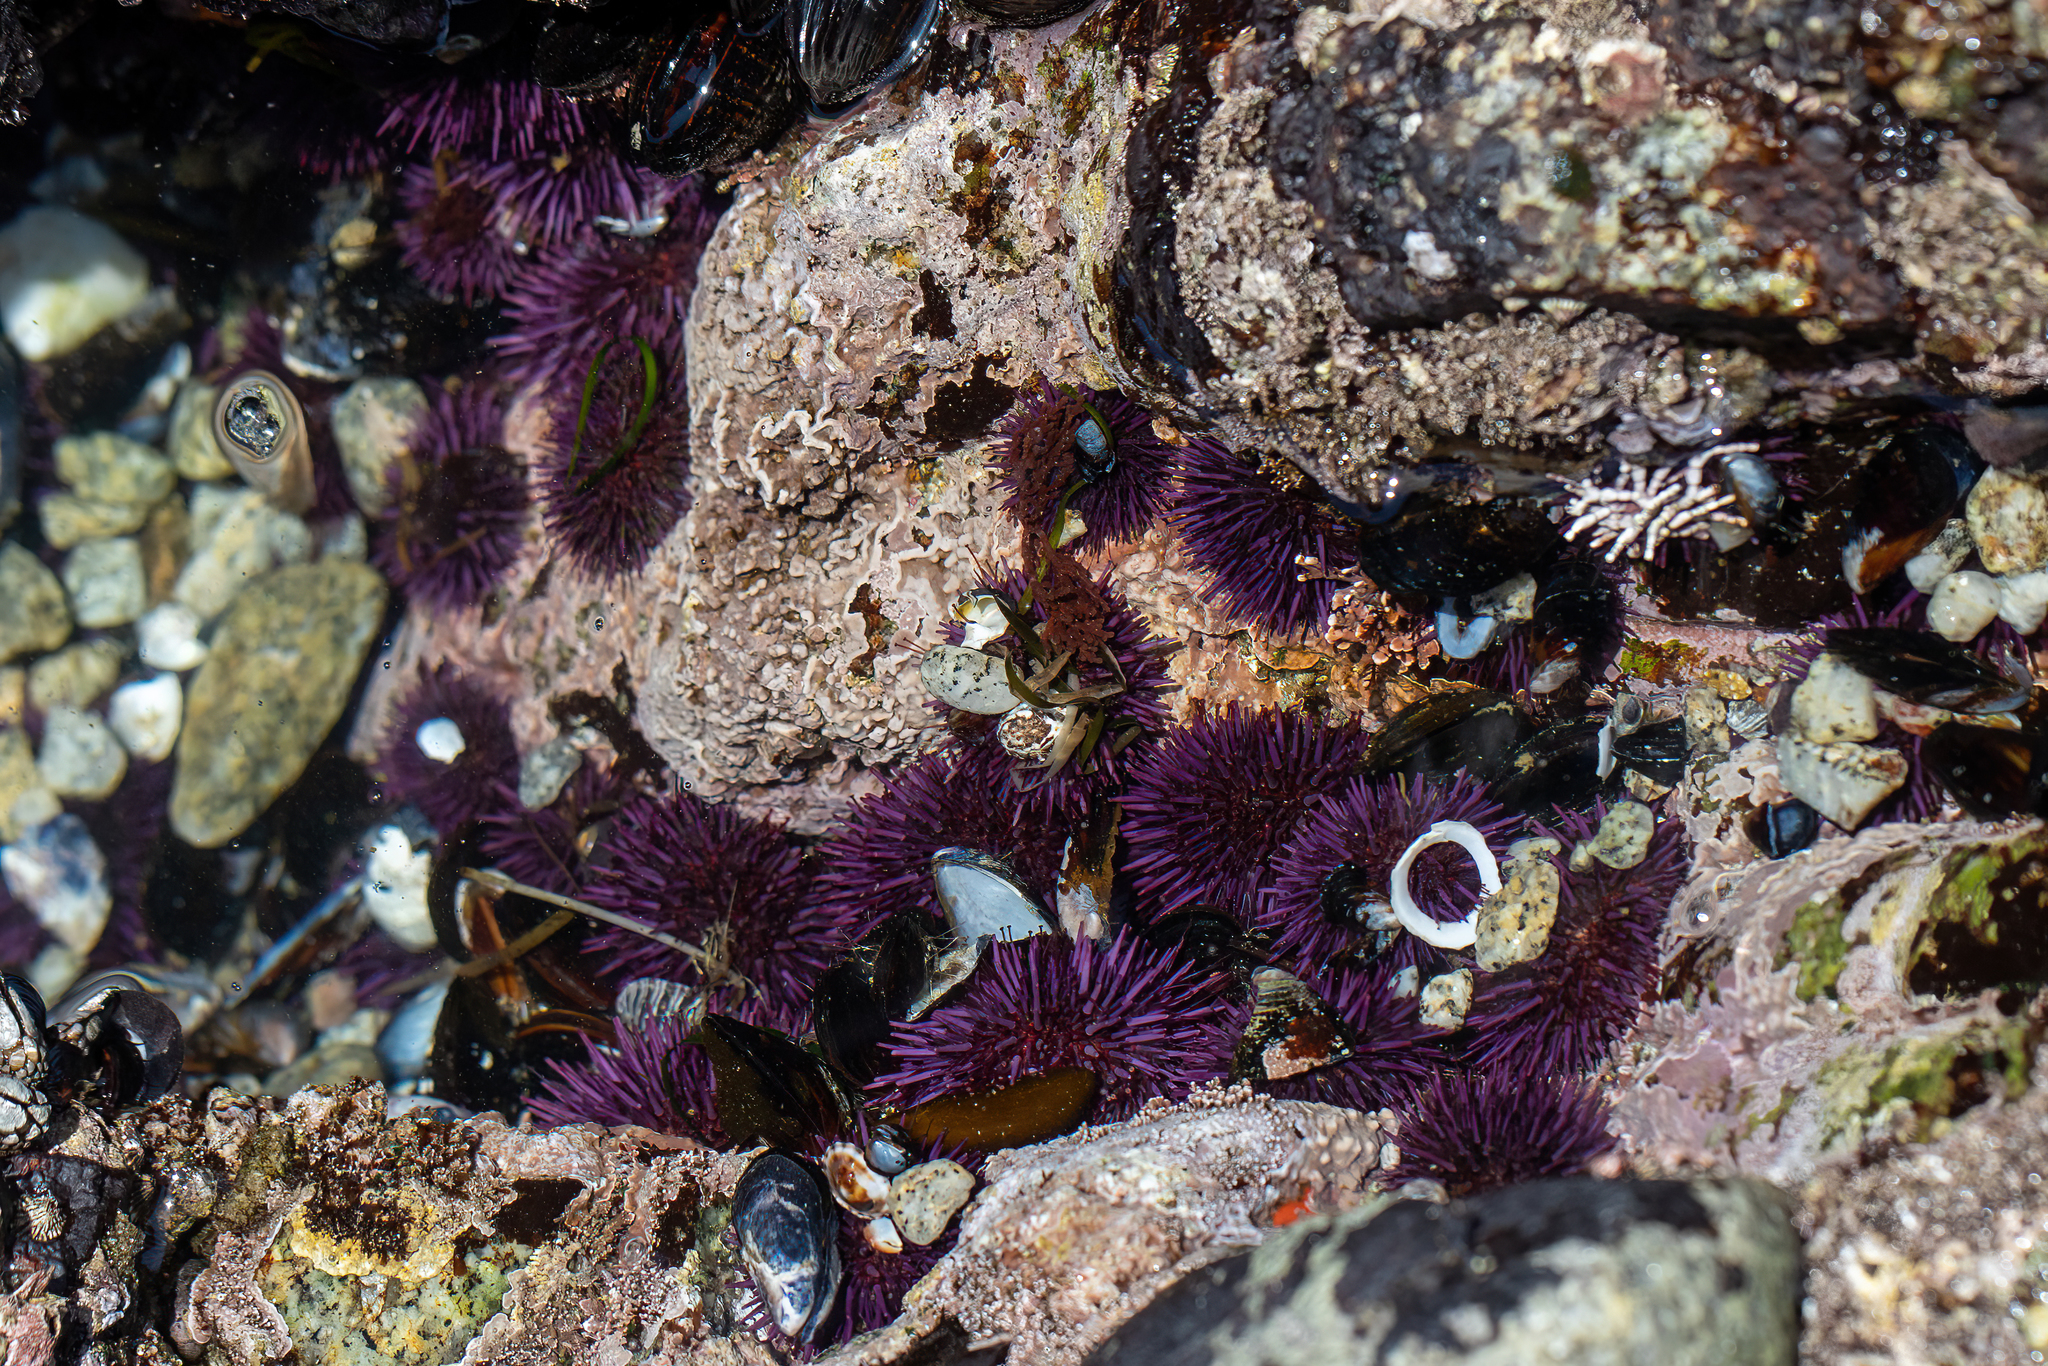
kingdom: Animalia
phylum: Echinodermata
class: Echinoidea
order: Camarodonta
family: Strongylocentrotidae
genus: Strongylocentrotus
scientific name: Strongylocentrotus purpuratus
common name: Purple sea urchin
